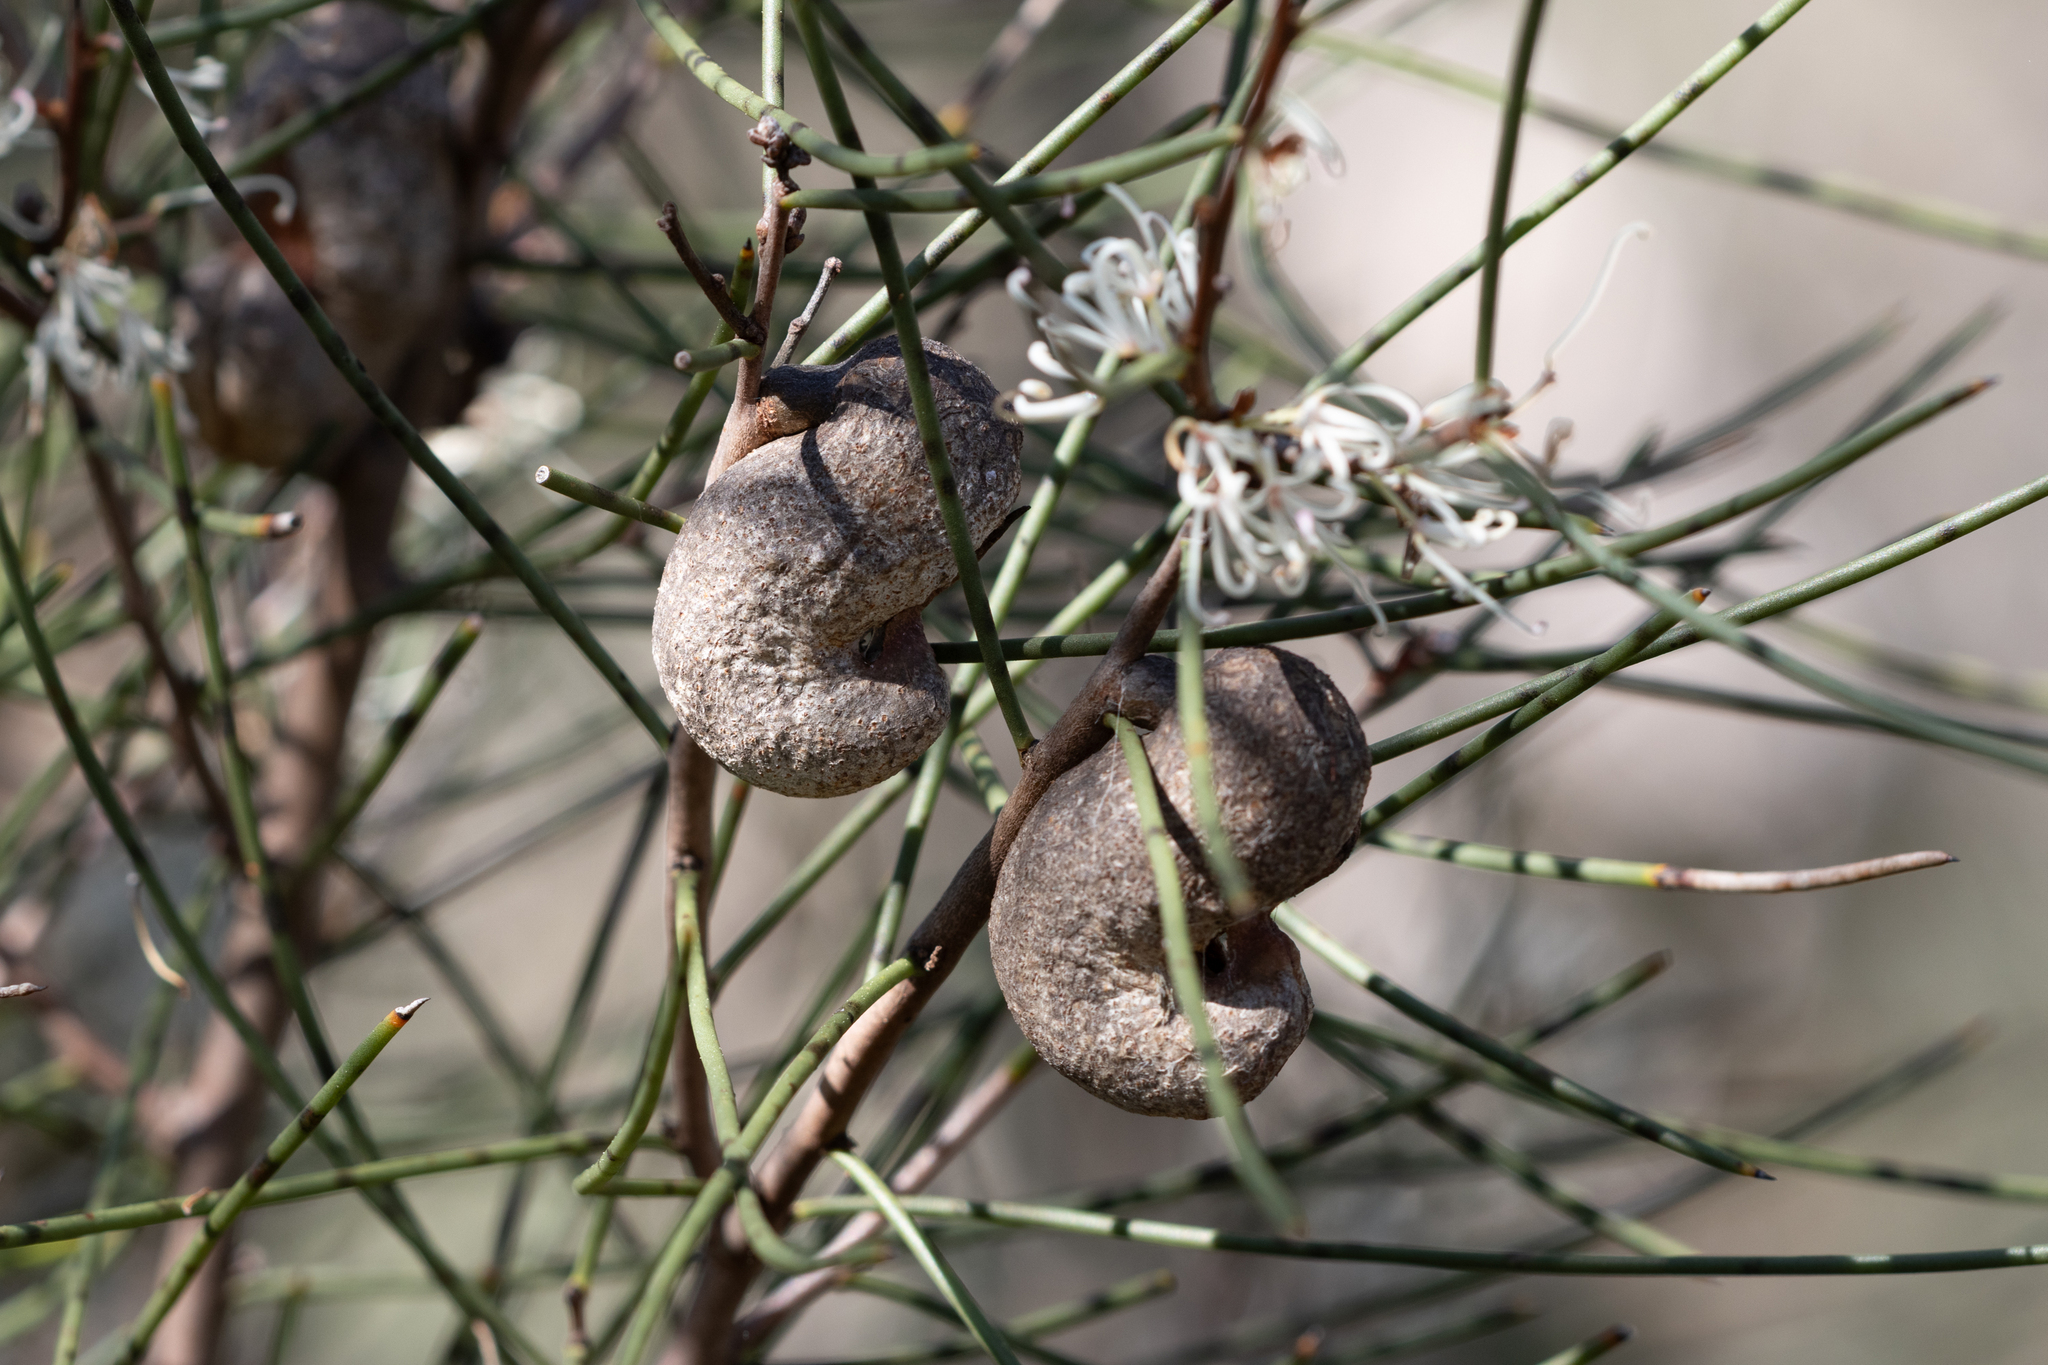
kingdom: Plantae
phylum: Tracheophyta
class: Magnoliopsida
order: Proteales
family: Proteaceae
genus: Hakea
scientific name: Hakea rostrata
